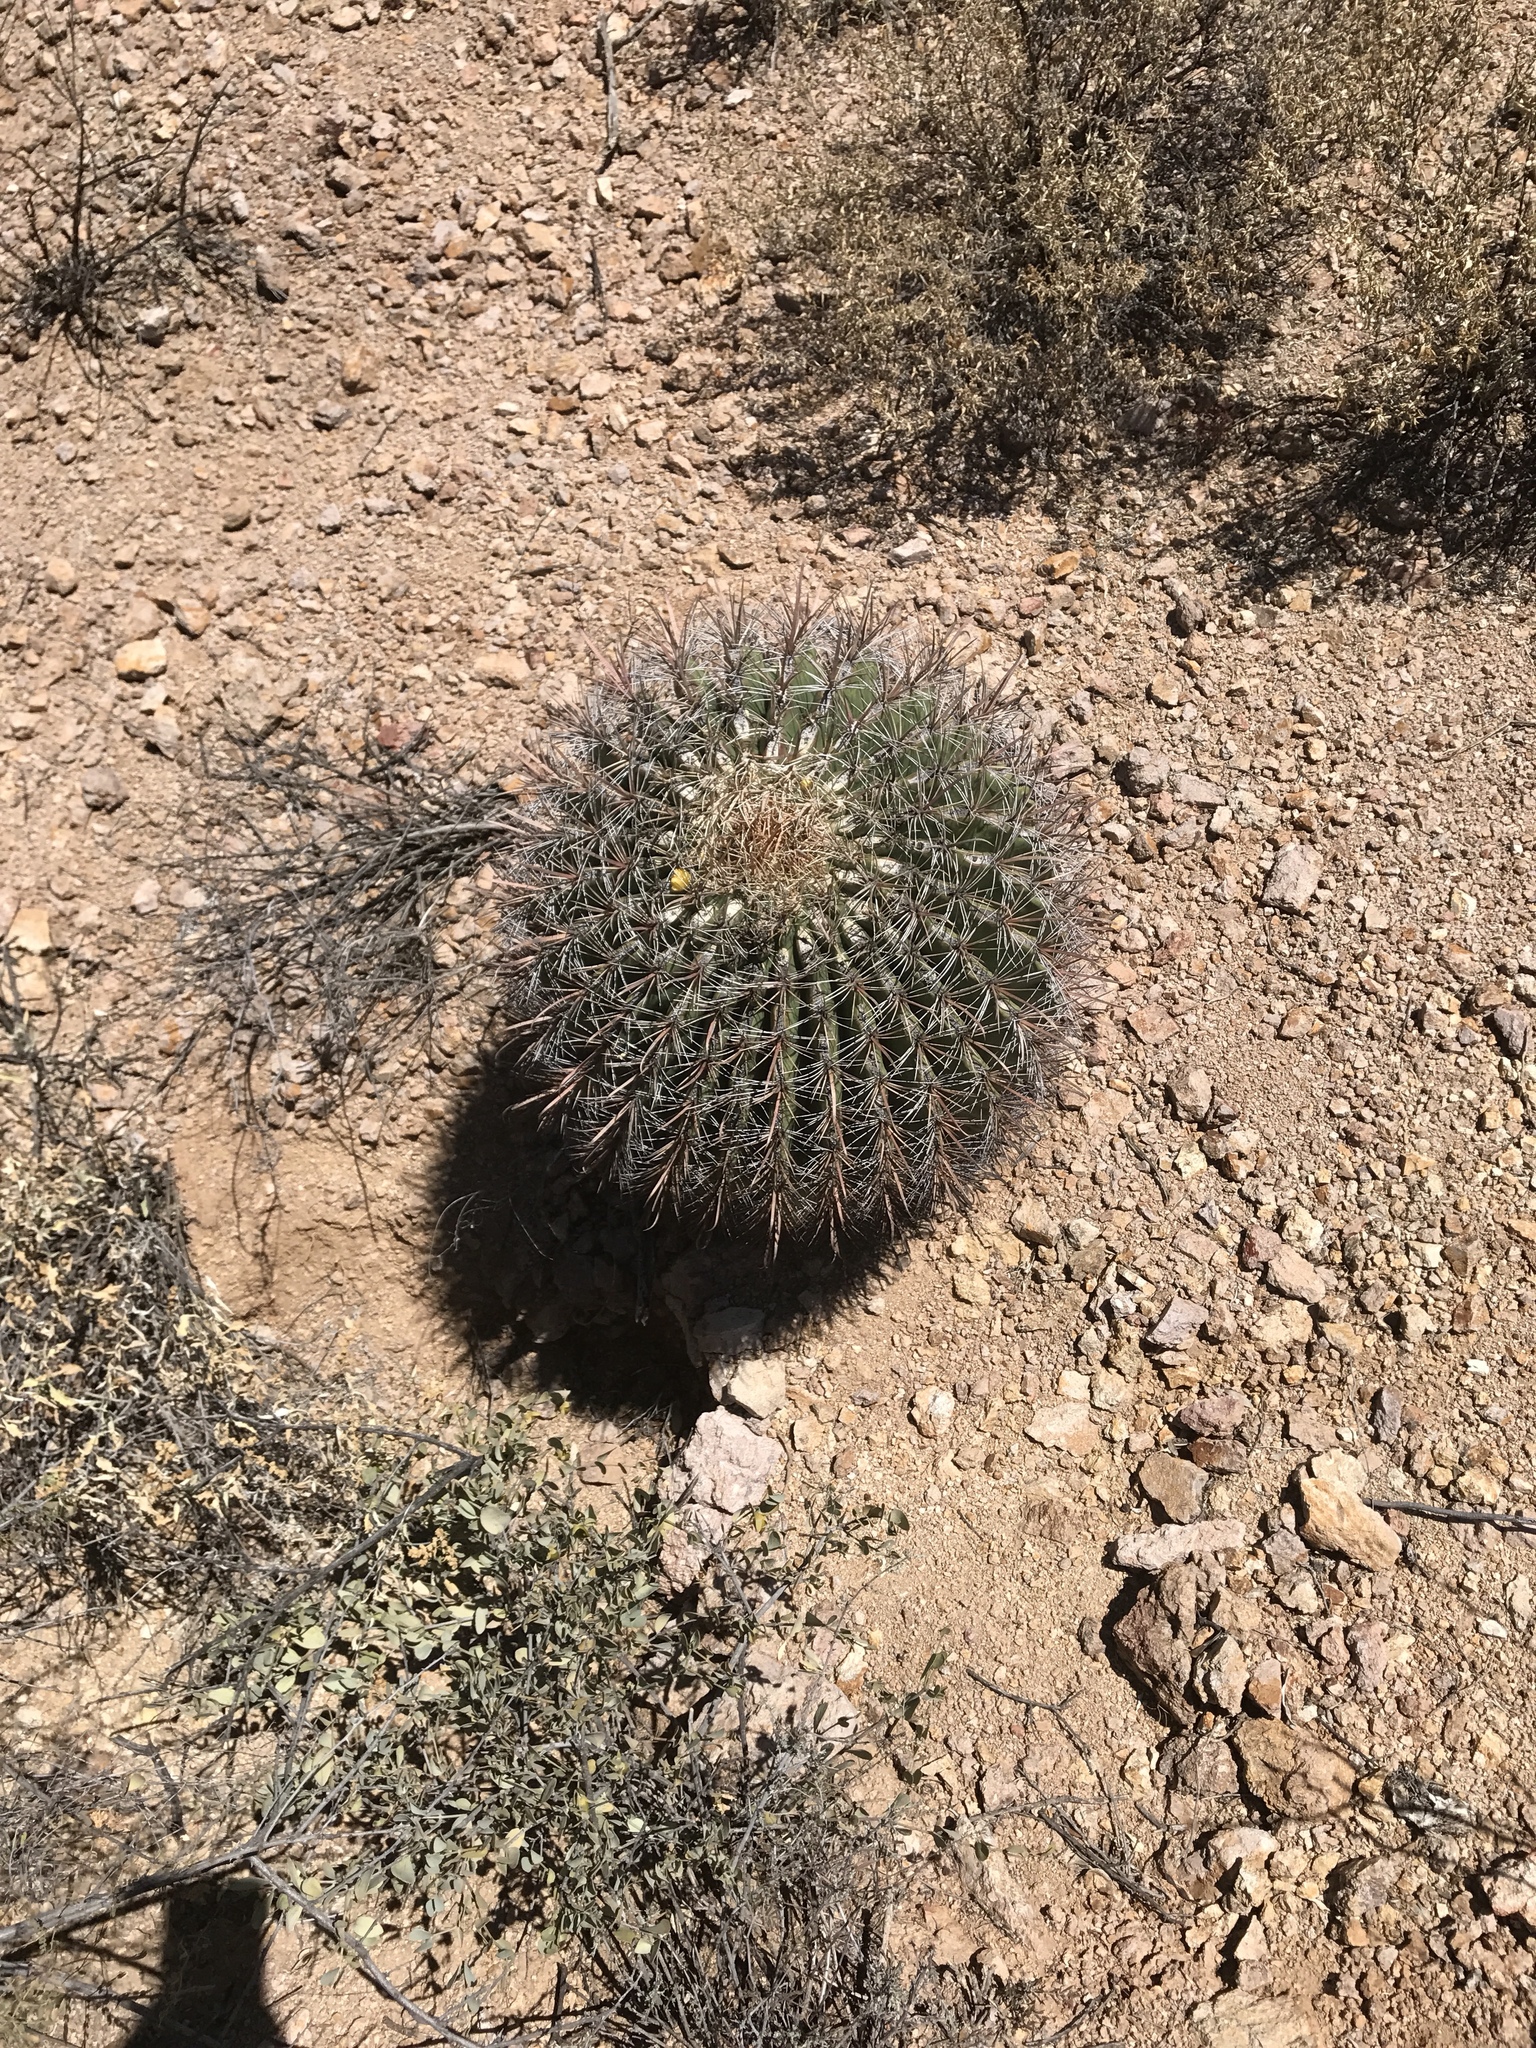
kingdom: Plantae
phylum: Tracheophyta
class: Magnoliopsida
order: Caryophyllales
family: Cactaceae
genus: Ferocactus
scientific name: Ferocactus wislizeni
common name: Candy barrel cactus
